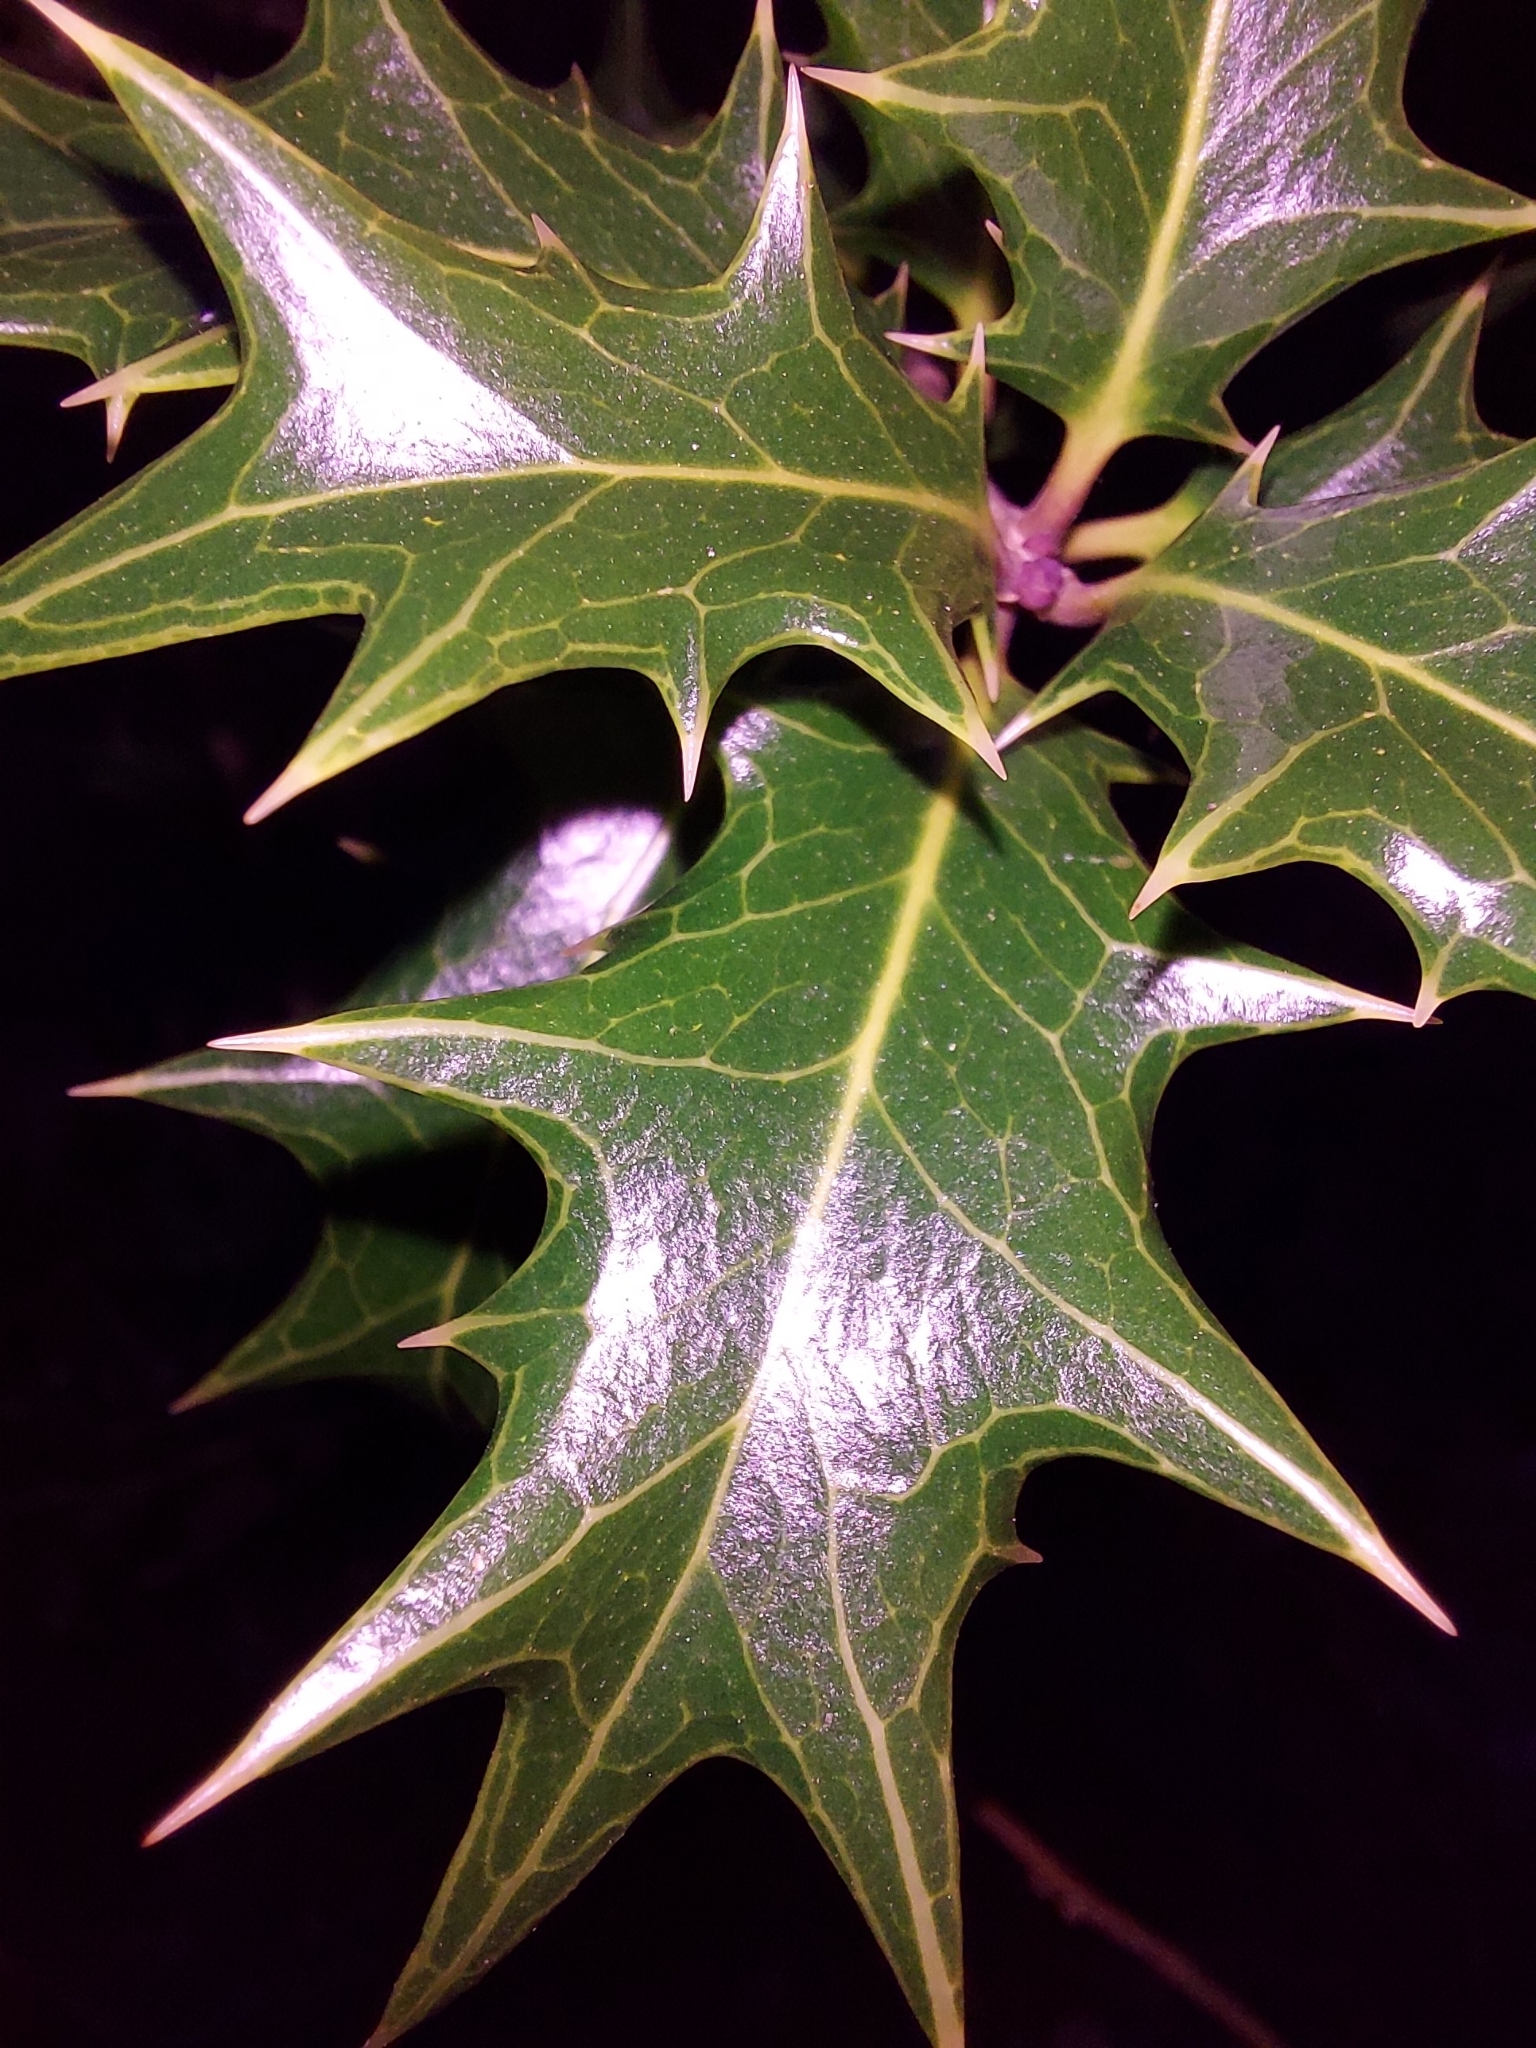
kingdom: Plantae
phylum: Tracheophyta
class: Magnoliopsida
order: Lamiales
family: Oleaceae
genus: Osmanthus
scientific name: Osmanthus heterophyllus
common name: Holly osmanthus
